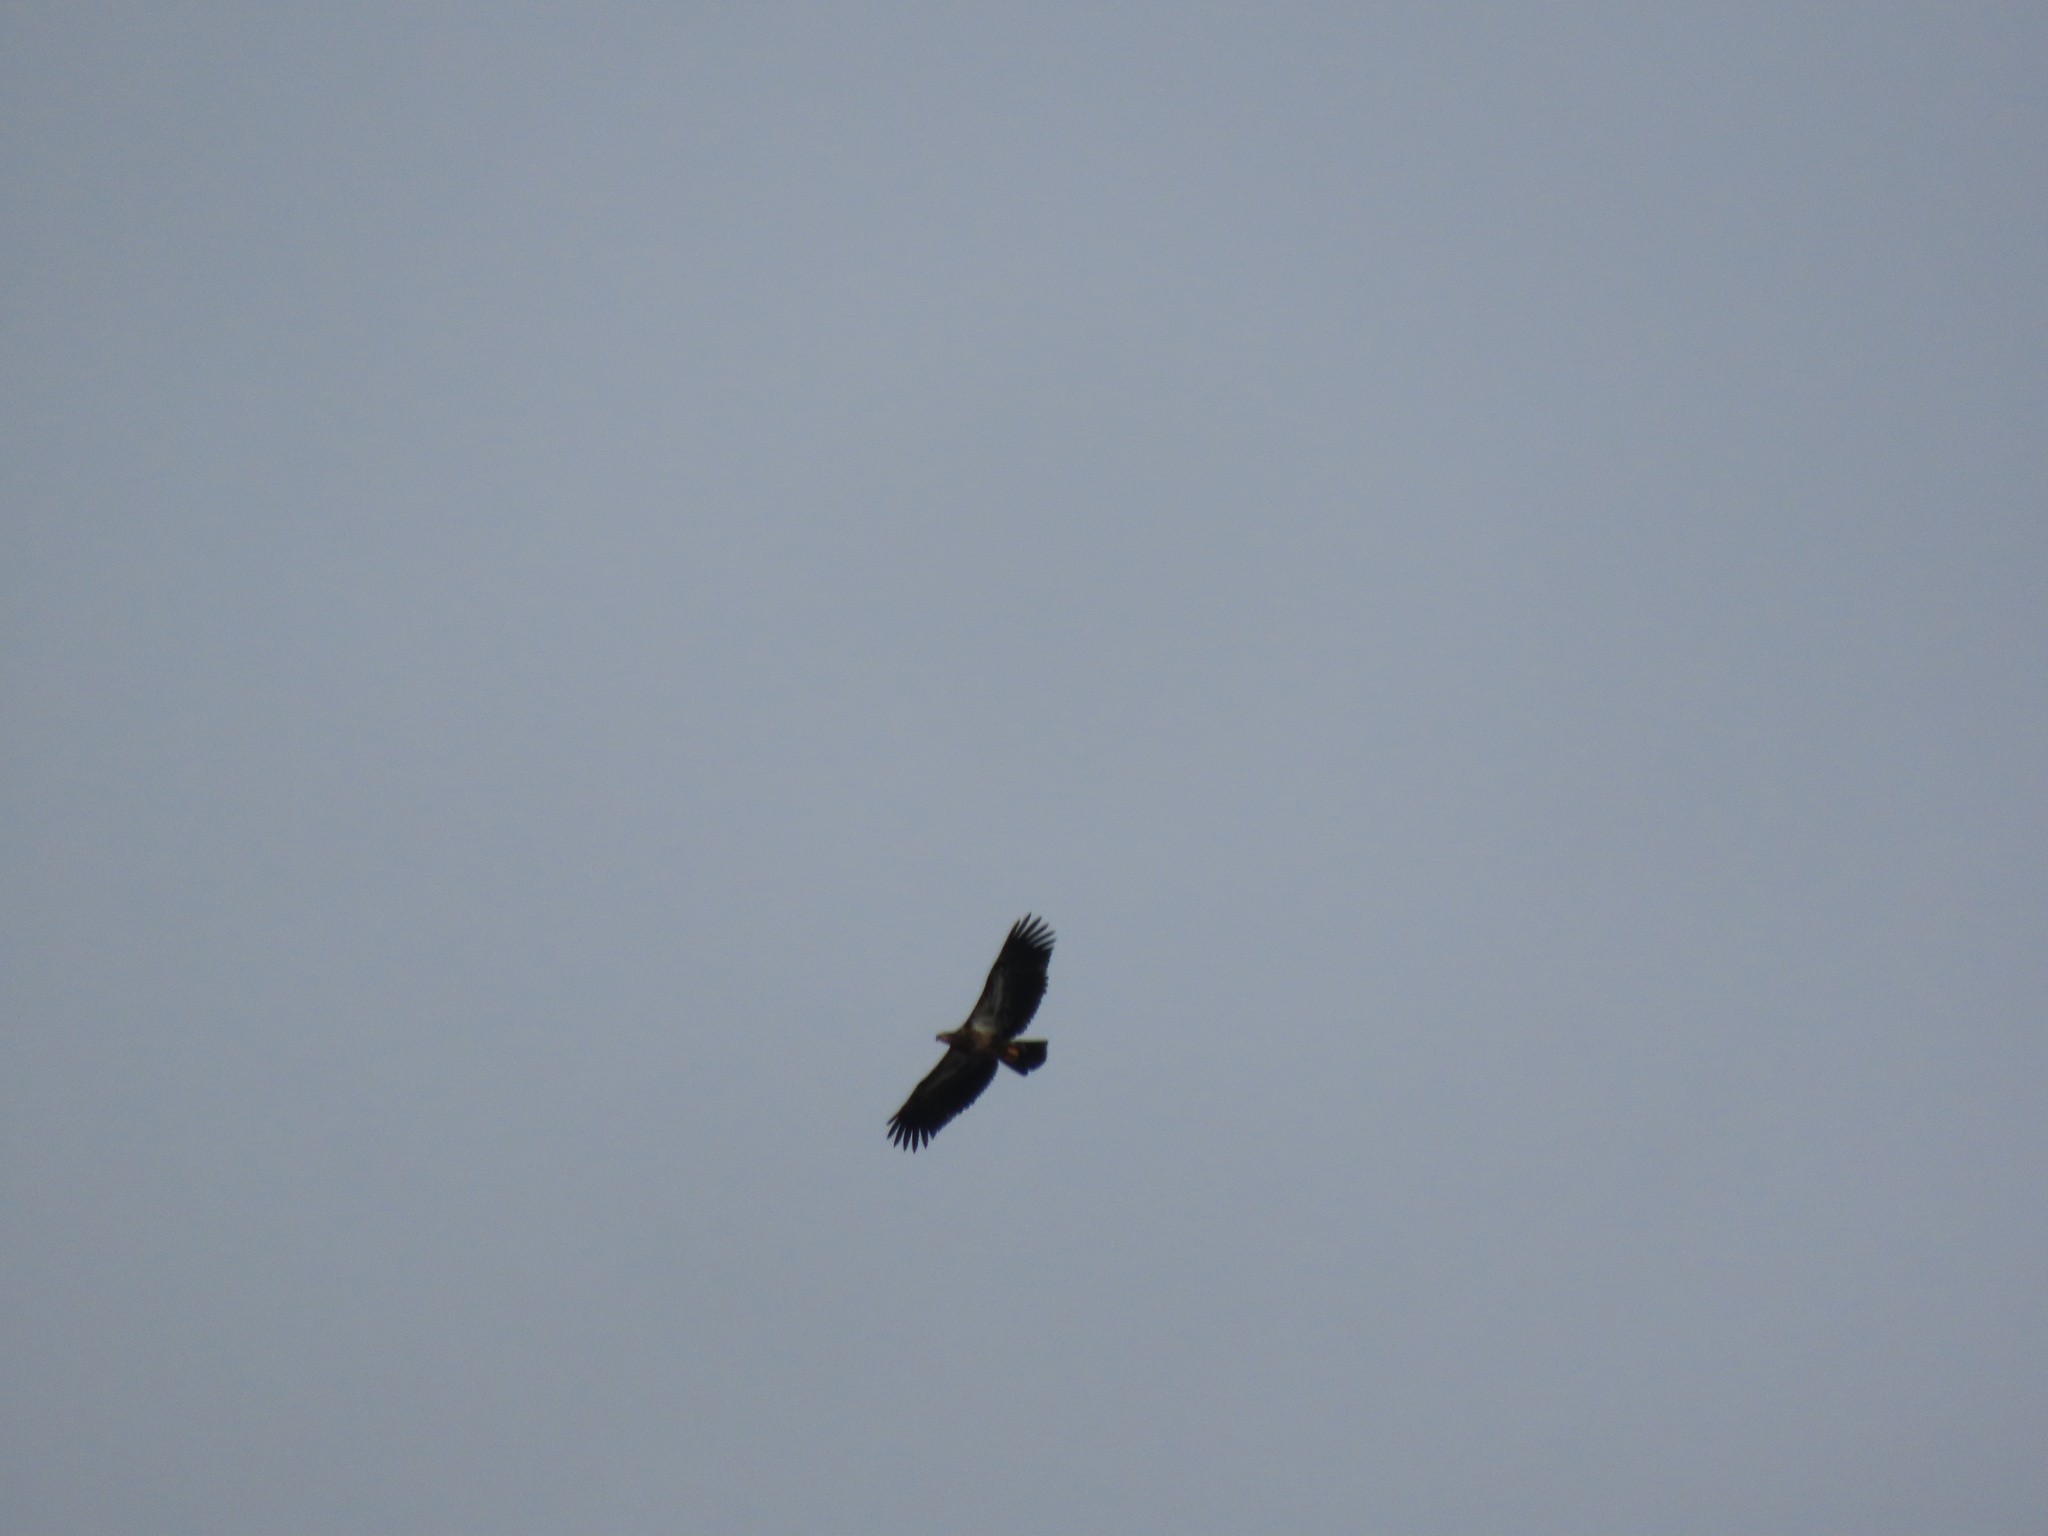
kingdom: Animalia
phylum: Chordata
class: Aves
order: Accipitriformes
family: Accipitridae
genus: Haliaeetus
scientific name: Haliaeetus leucocephalus
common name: Bald eagle
